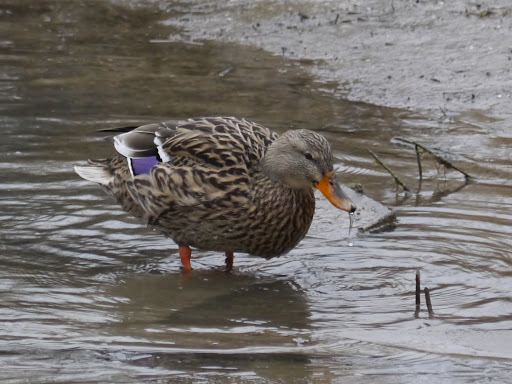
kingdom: Animalia
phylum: Chordata
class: Aves
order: Anseriformes
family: Anatidae
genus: Anas
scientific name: Anas platyrhynchos
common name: Mallard
